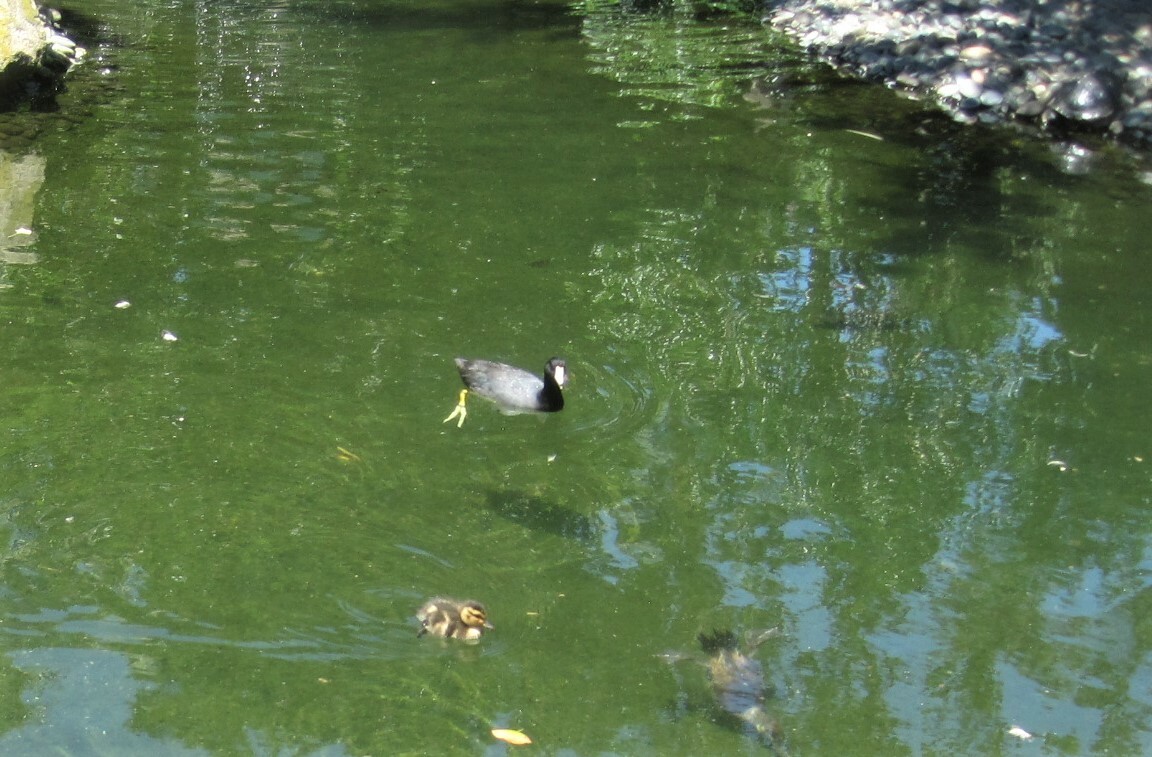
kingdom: Animalia
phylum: Chordata
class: Aves
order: Gruiformes
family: Rallidae
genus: Fulica
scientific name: Fulica americana
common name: American coot
